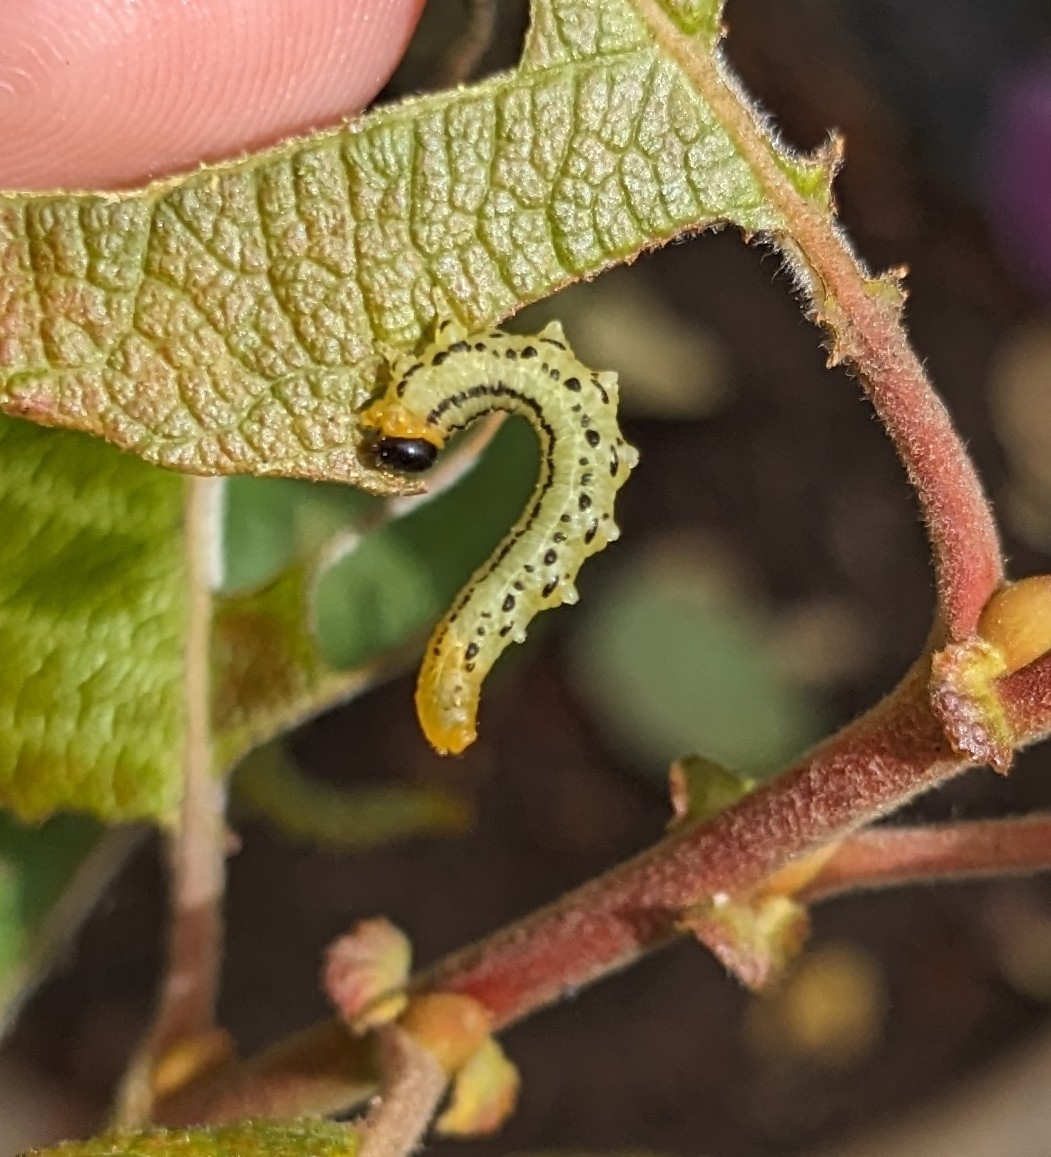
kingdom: Animalia
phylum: Arthropoda
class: Insecta
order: Hymenoptera
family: Tenthredinidae
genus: Nematus
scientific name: Nematus pavidus
